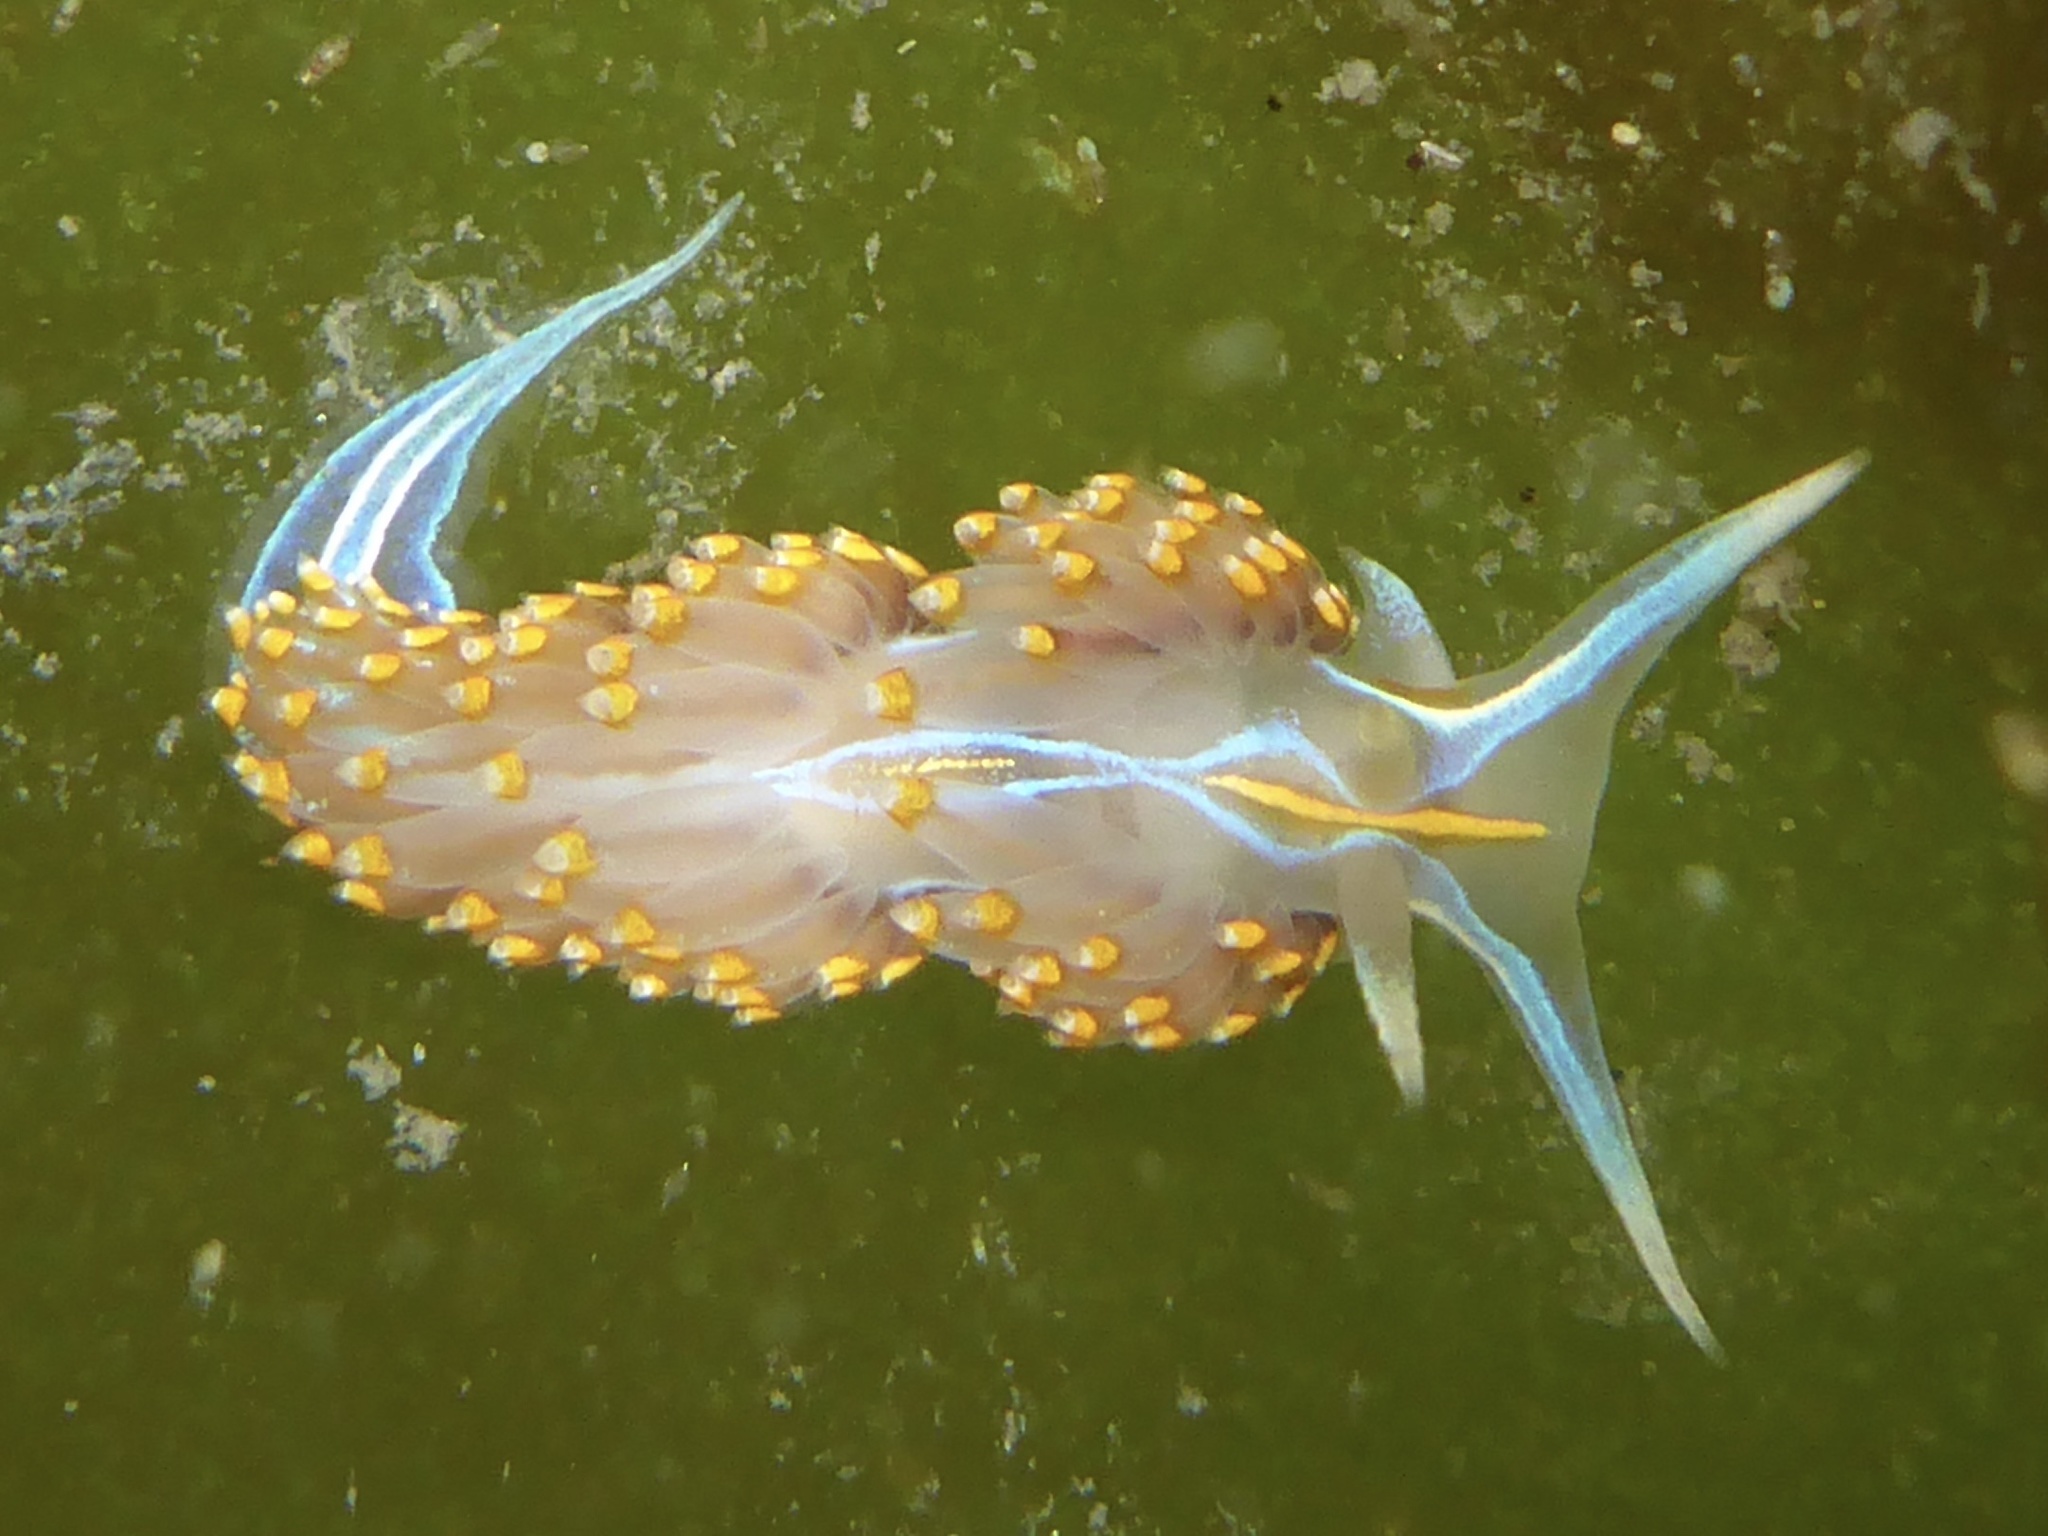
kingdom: Animalia
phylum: Mollusca
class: Gastropoda
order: Nudibranchia
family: Myrrhinidae
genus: Hermissenda
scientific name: Hermissenda opalescens
